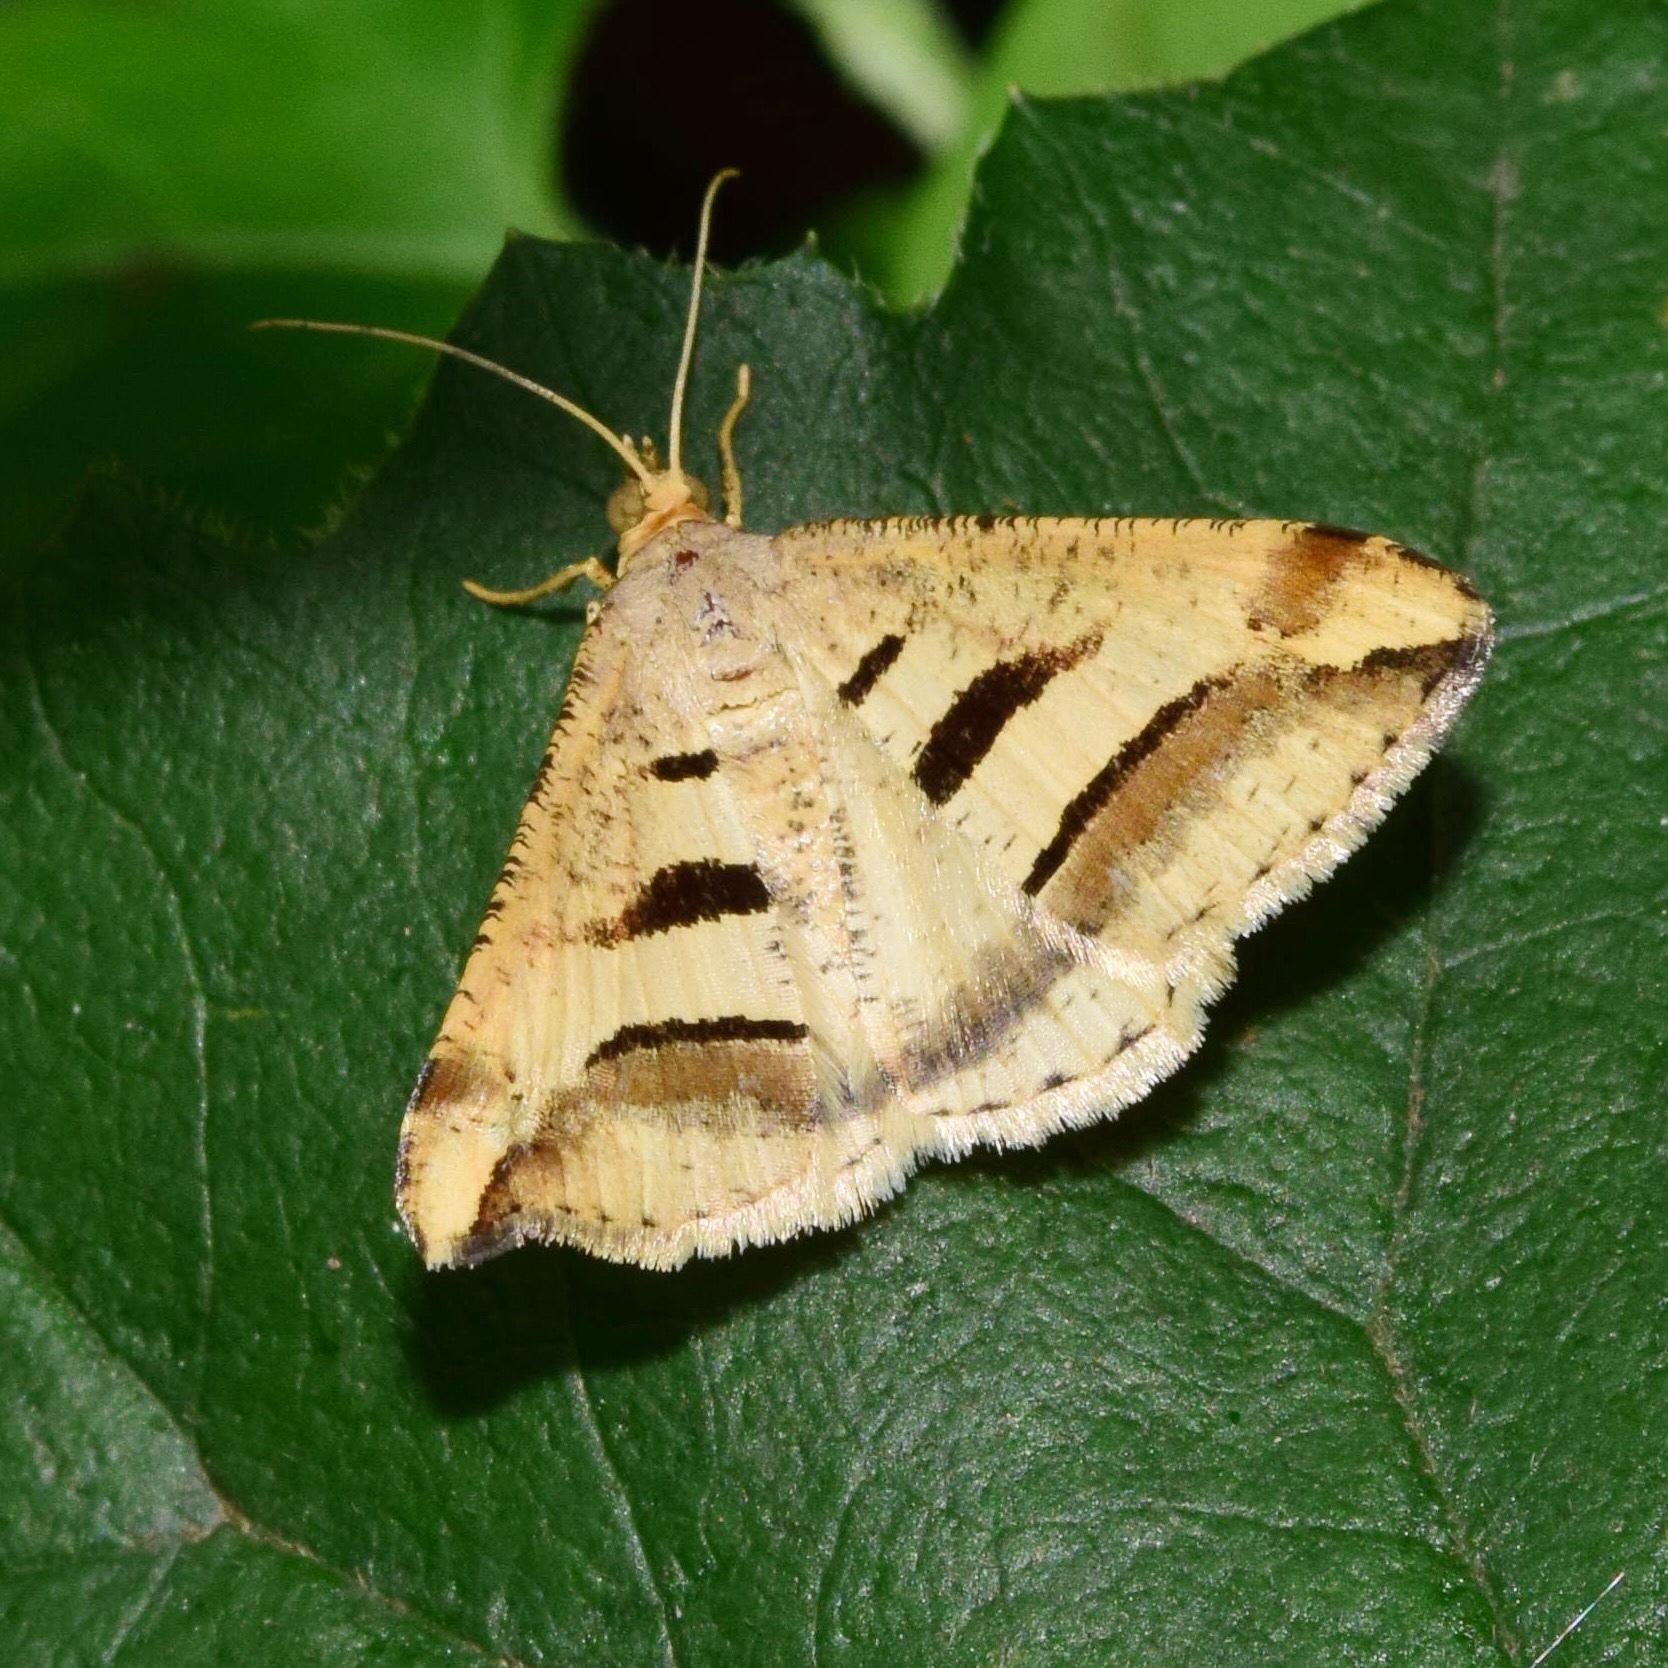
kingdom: Animalia
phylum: Arthropoda
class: Insecta
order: Lepidoptera
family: Geometridae
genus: Chiasmia
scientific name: Chiasmia subcurvaria
